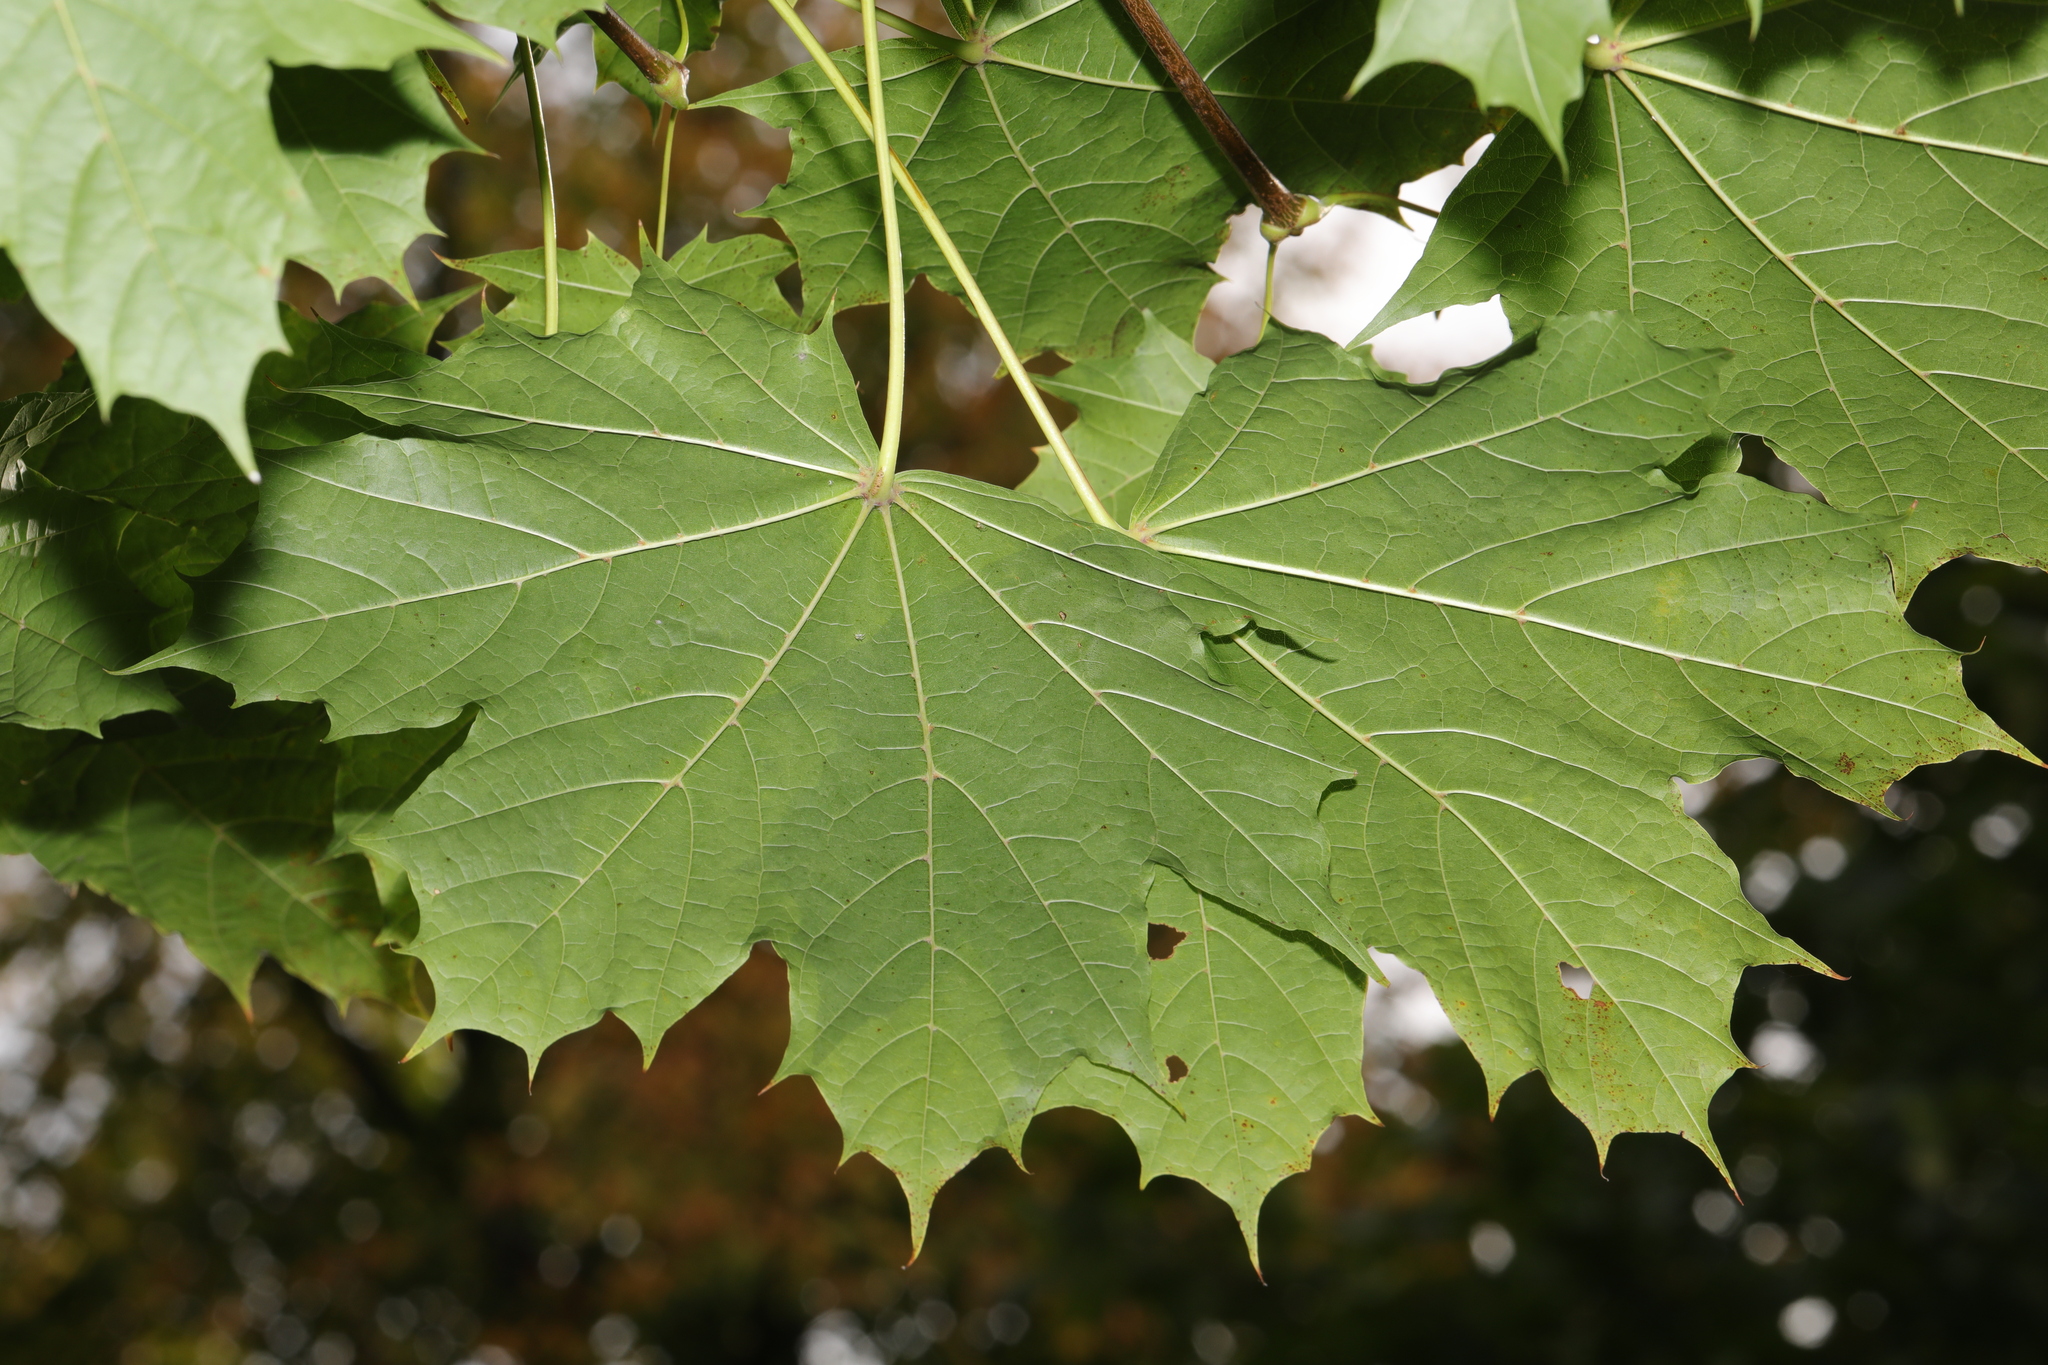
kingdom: Plantae
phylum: Tracheophyta
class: Magnoliopsida
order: Sapindales
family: Sapindaceae
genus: Acer
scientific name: Acer platanoides
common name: Norway maple
